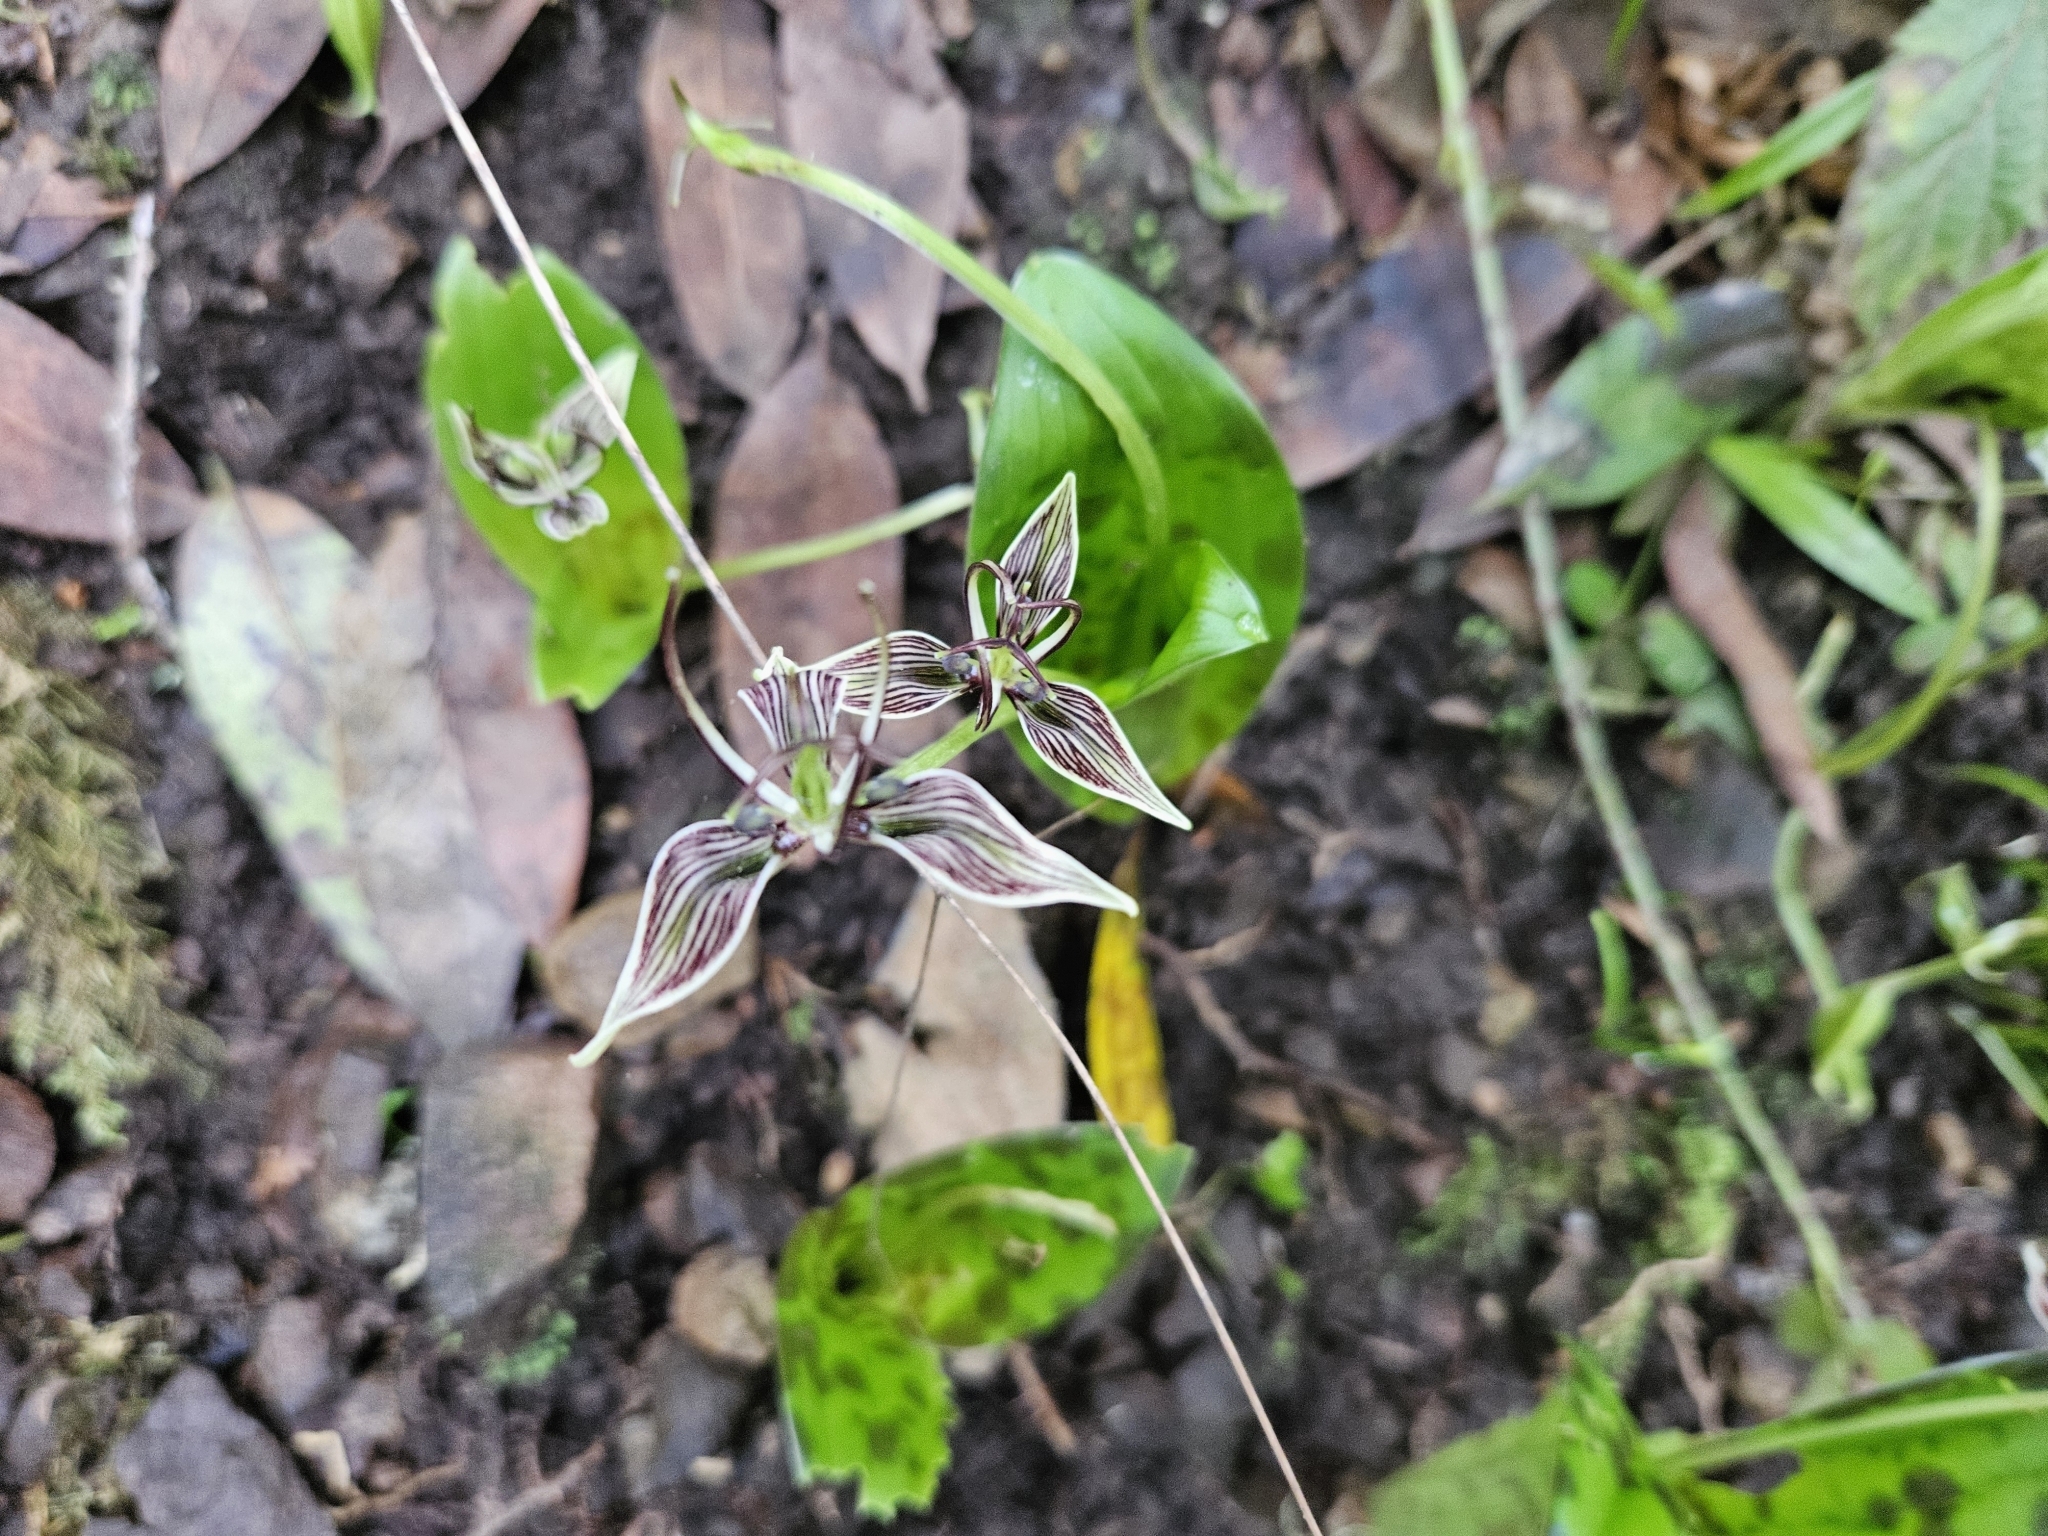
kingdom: Plantae
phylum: Tracheophyta
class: Liliopsida
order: Liliales
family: Liliaceae
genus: Scoliopus
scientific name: Scoliopus bigelovii
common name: Foetid adder's-tongue
